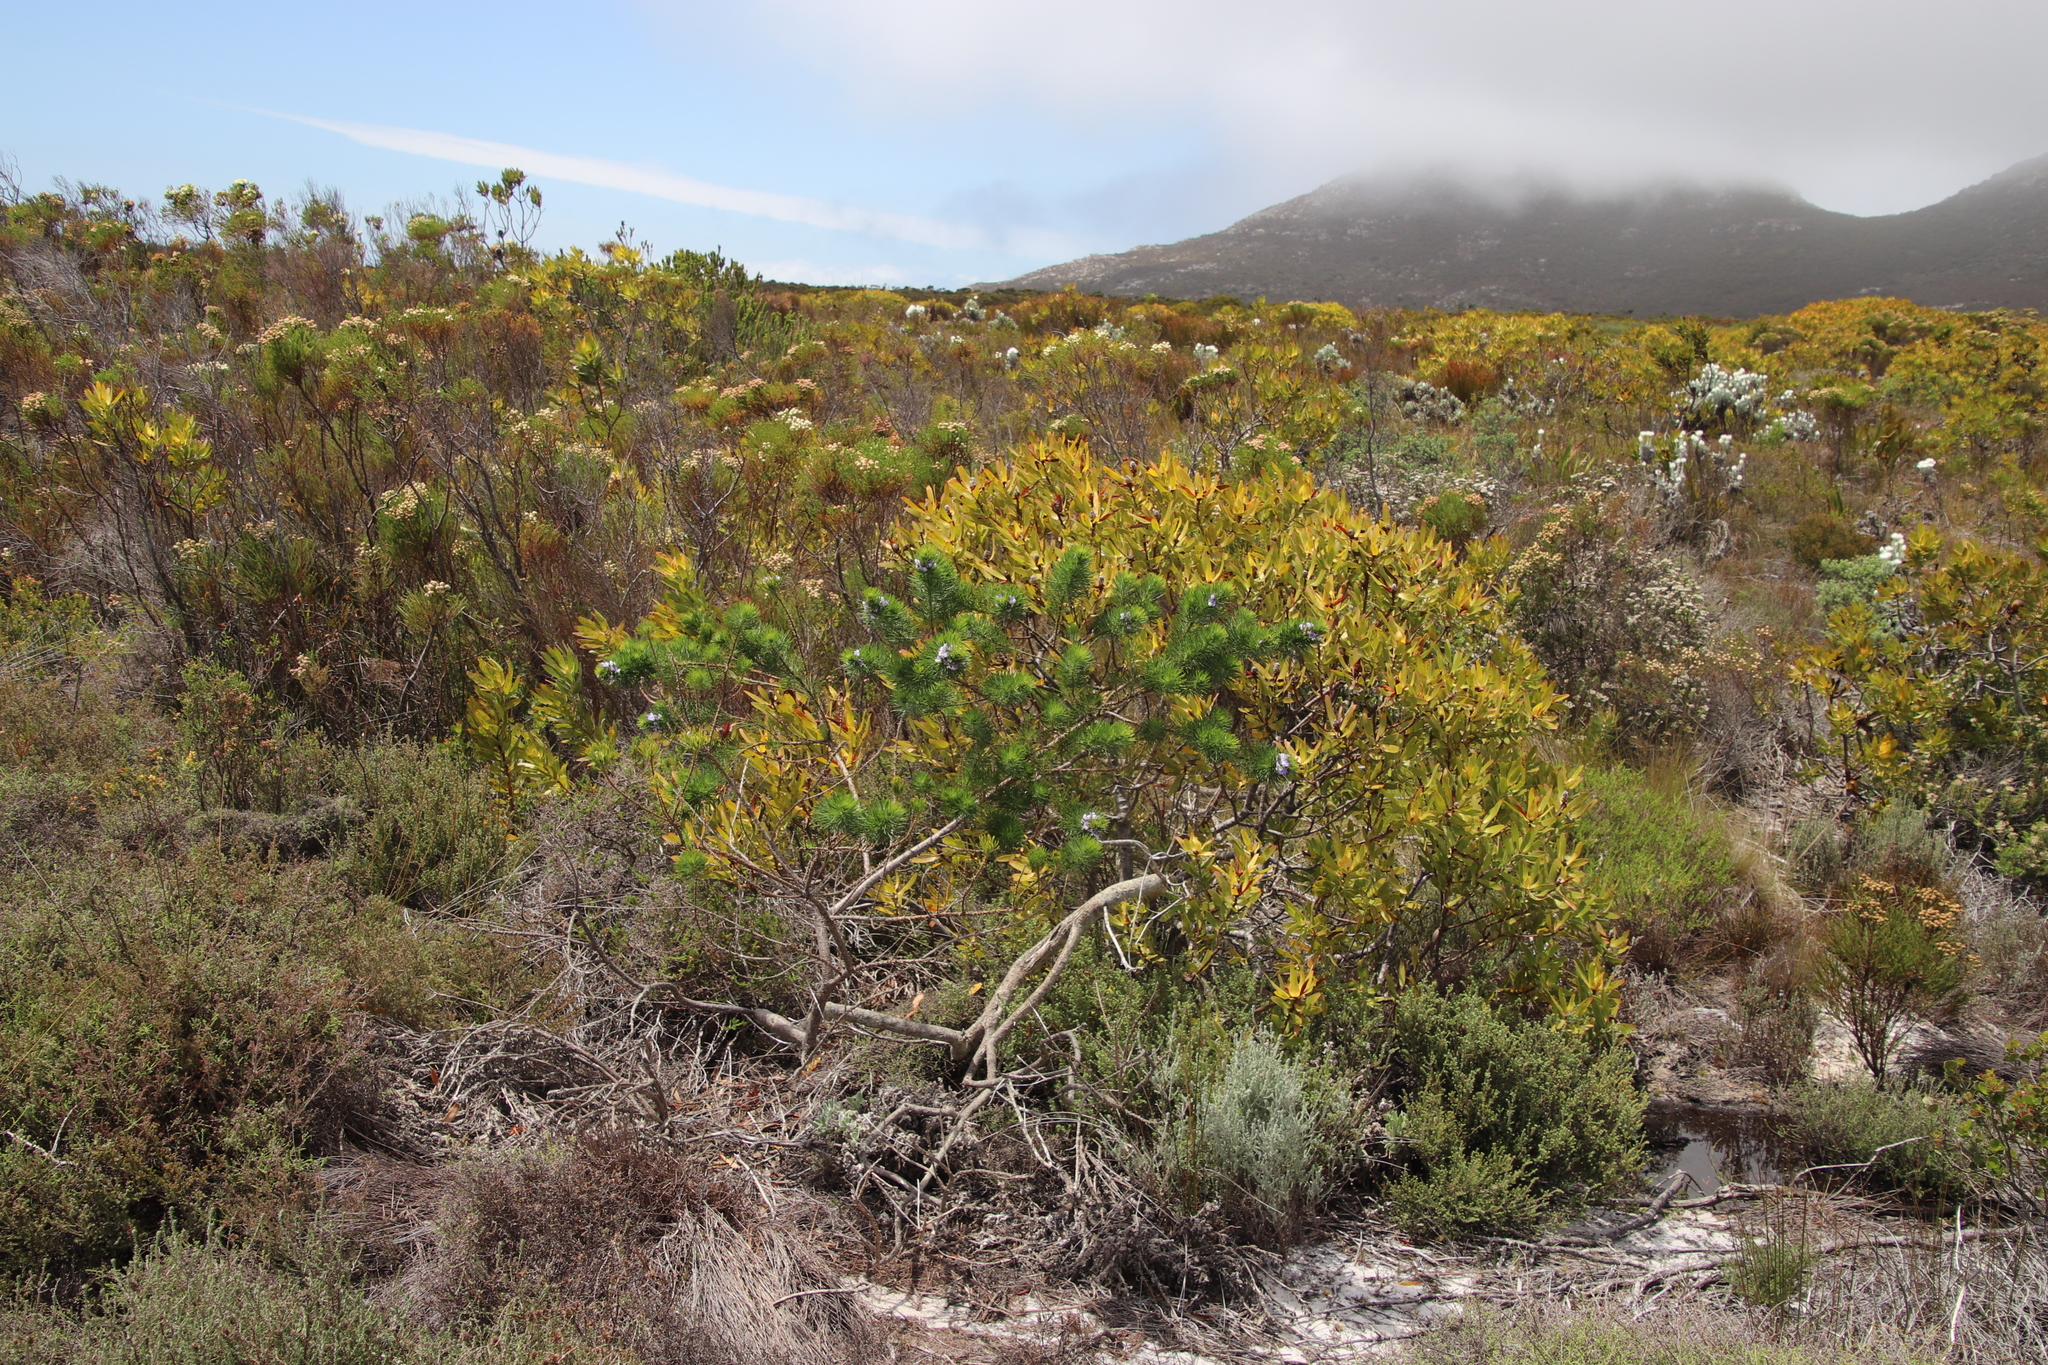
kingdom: Plantae
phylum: Tracheophyta
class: Magnoliopsida
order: Fabales
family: Fabaceae
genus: Psoralea
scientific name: Psoralea pinnata
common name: African scurfpea
